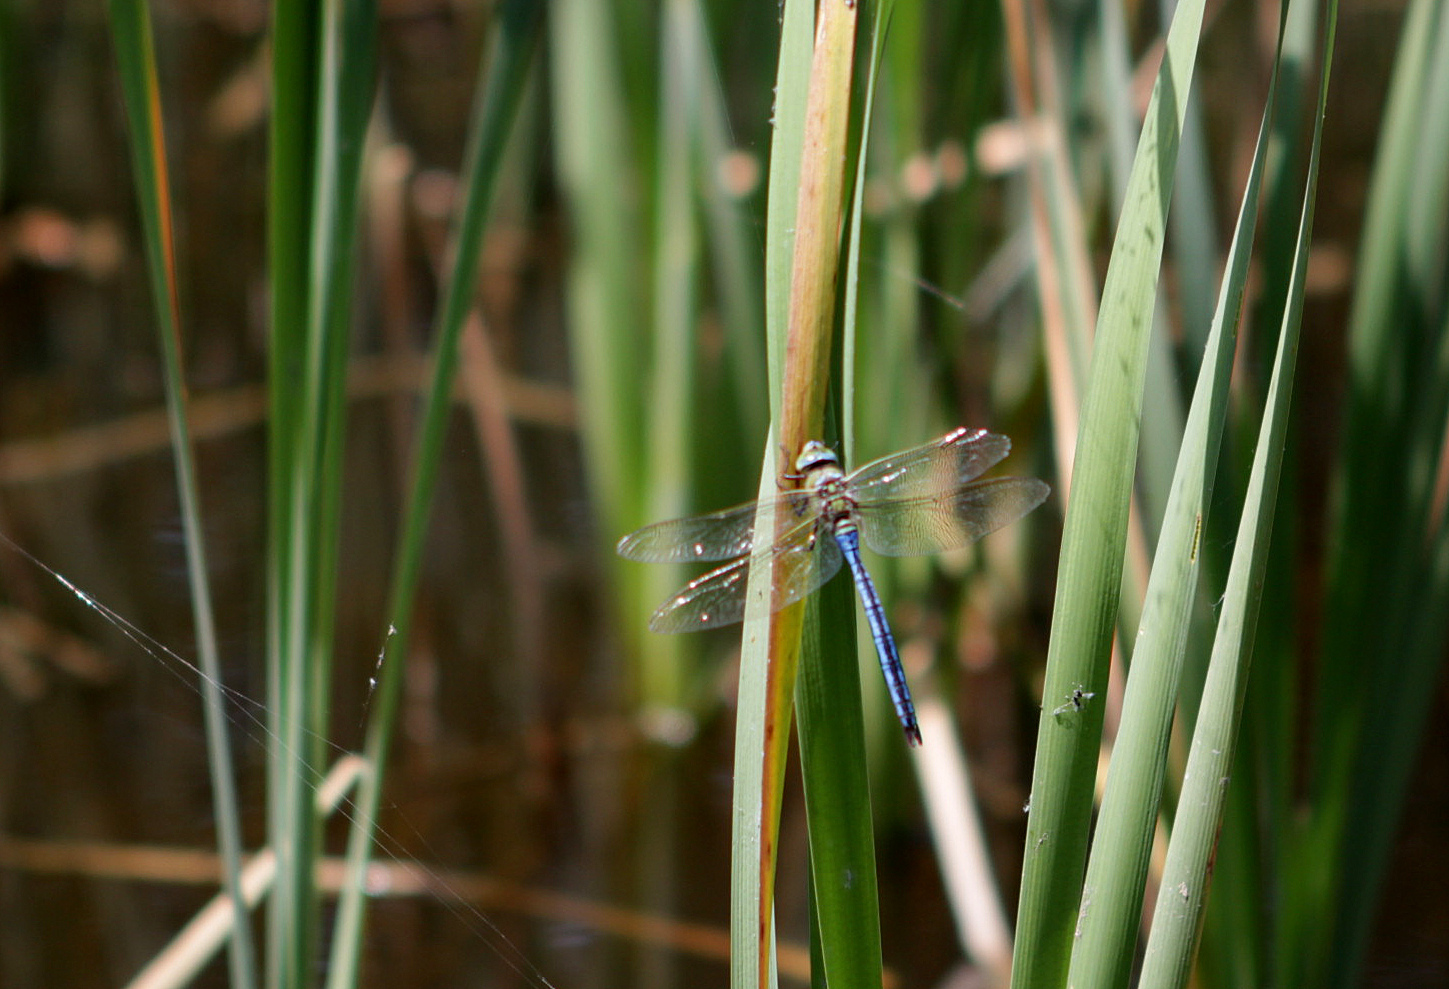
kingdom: Animalia
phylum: Arthropoda
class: Insecta
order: Odonata
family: Aeshnidae
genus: Anax
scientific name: Anax imperator
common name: Emperor dragonfly
